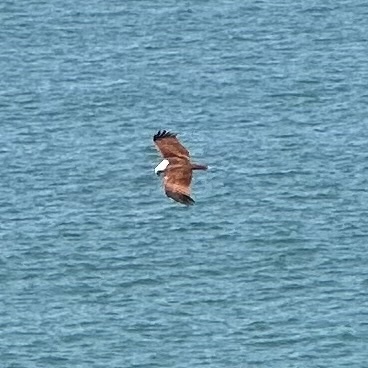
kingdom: Animalia
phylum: Chordata
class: Aves
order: Accipitriformes
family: Accipitridae
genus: Haliastur
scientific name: Haliastur indus
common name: Brahminy kite
